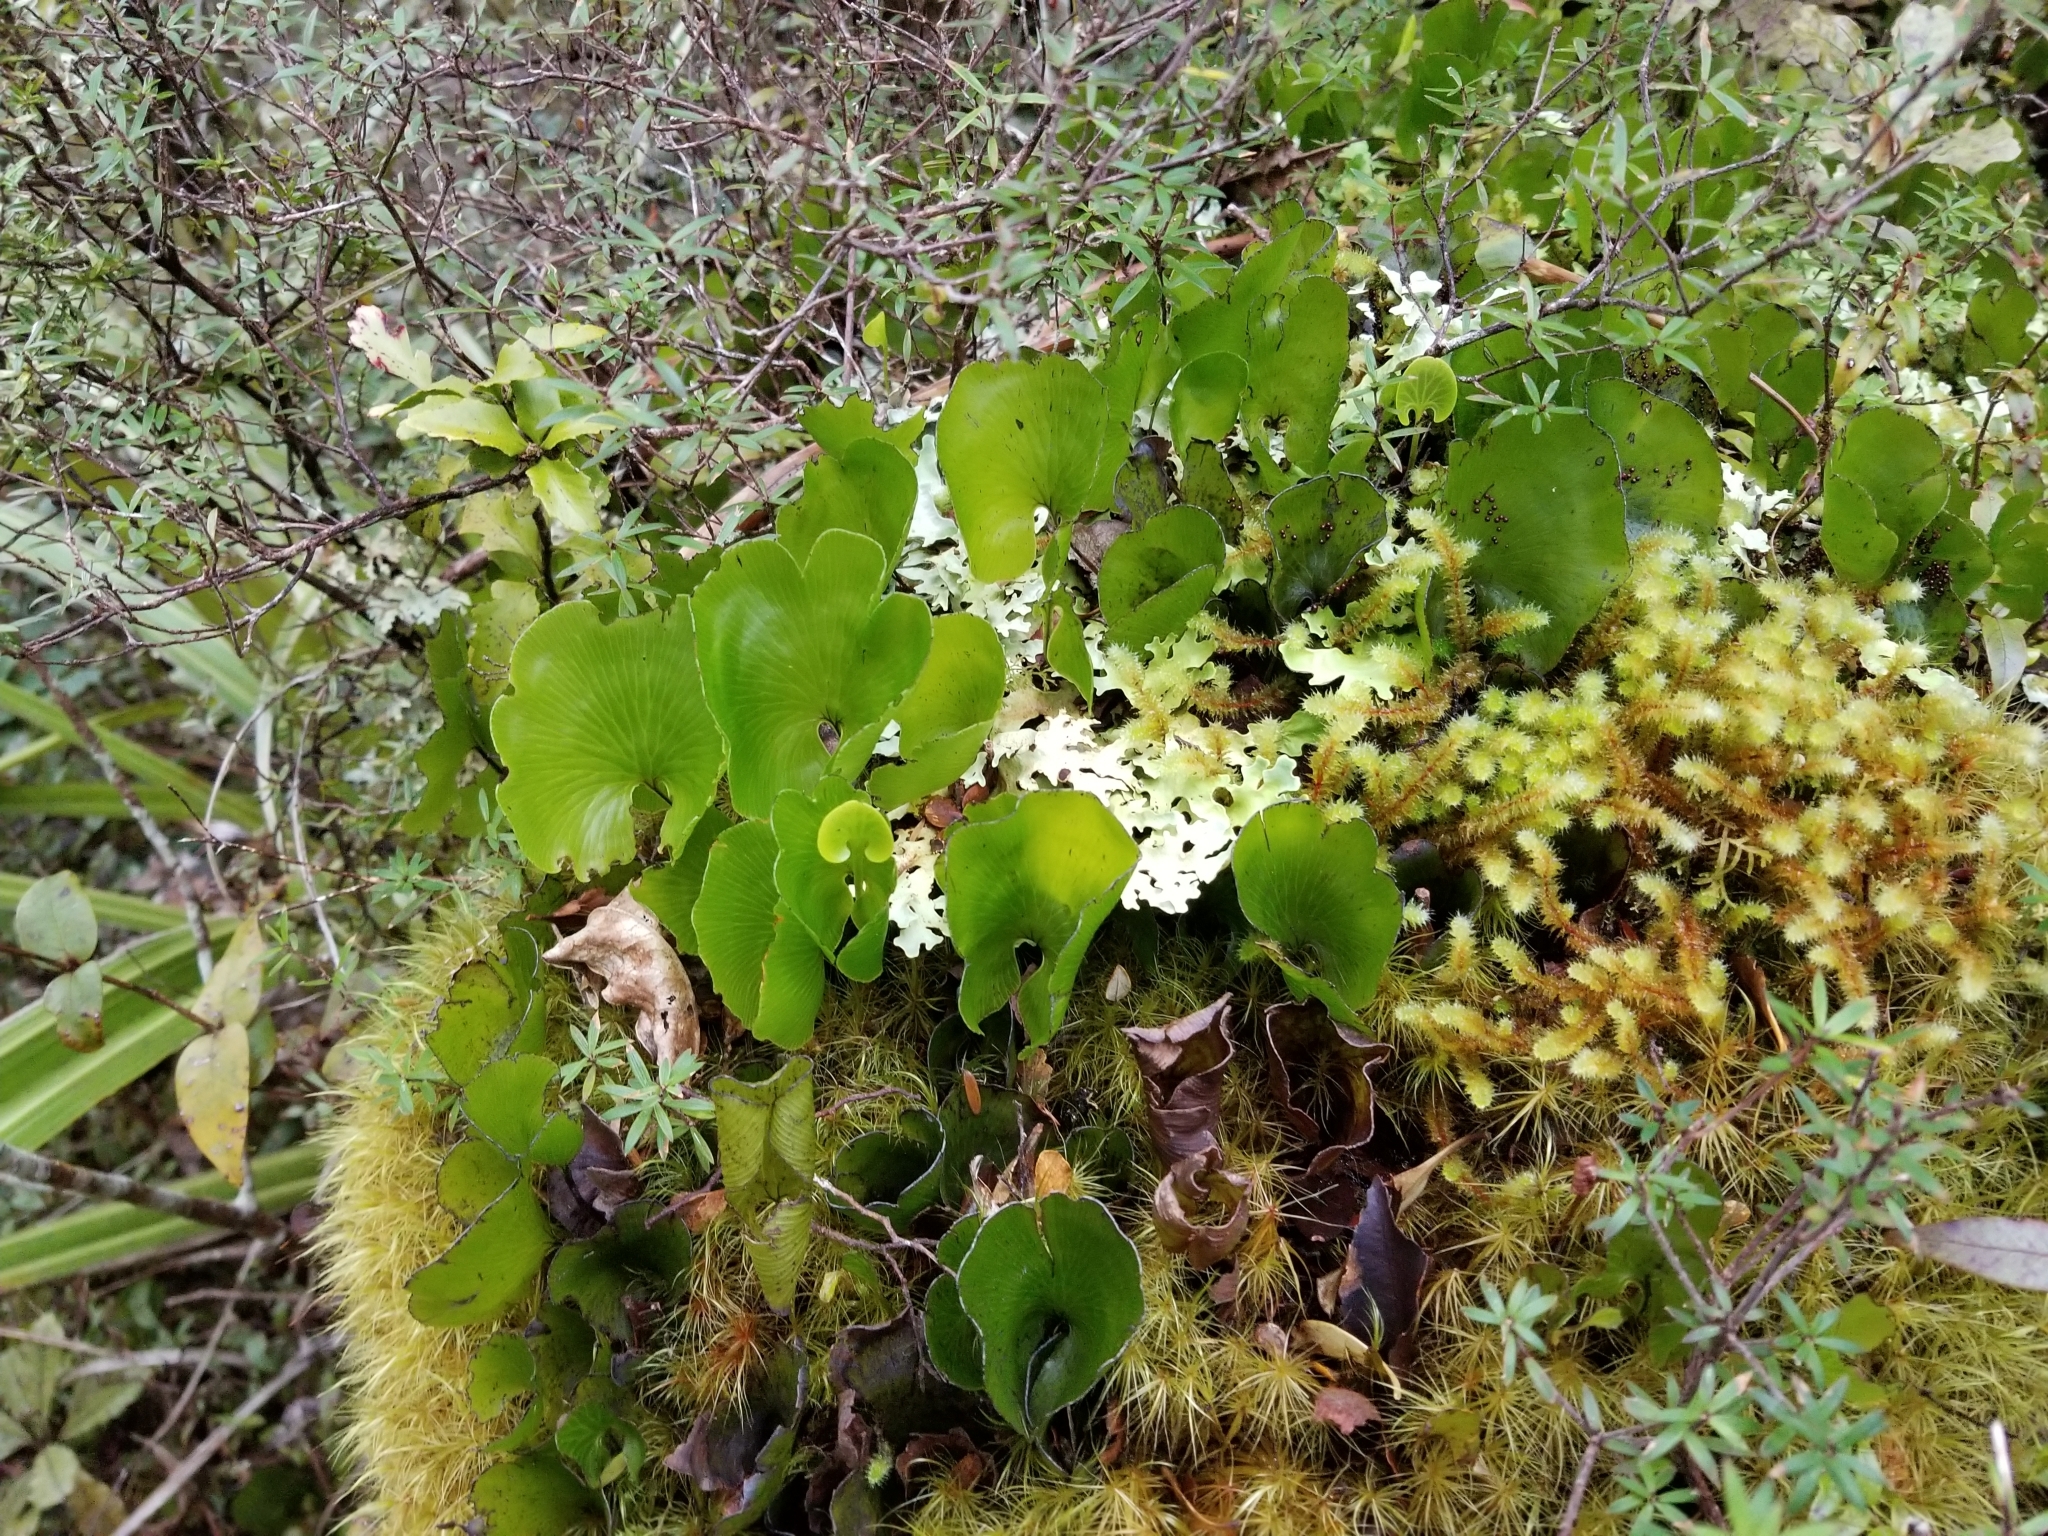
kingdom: Plantae
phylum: Tracheophyta
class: Polypodiopsida
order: Hymenophyllales
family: Hymenophyllaceae
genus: Hymenophyllum
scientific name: Hymenophyllum nephrophyllum
